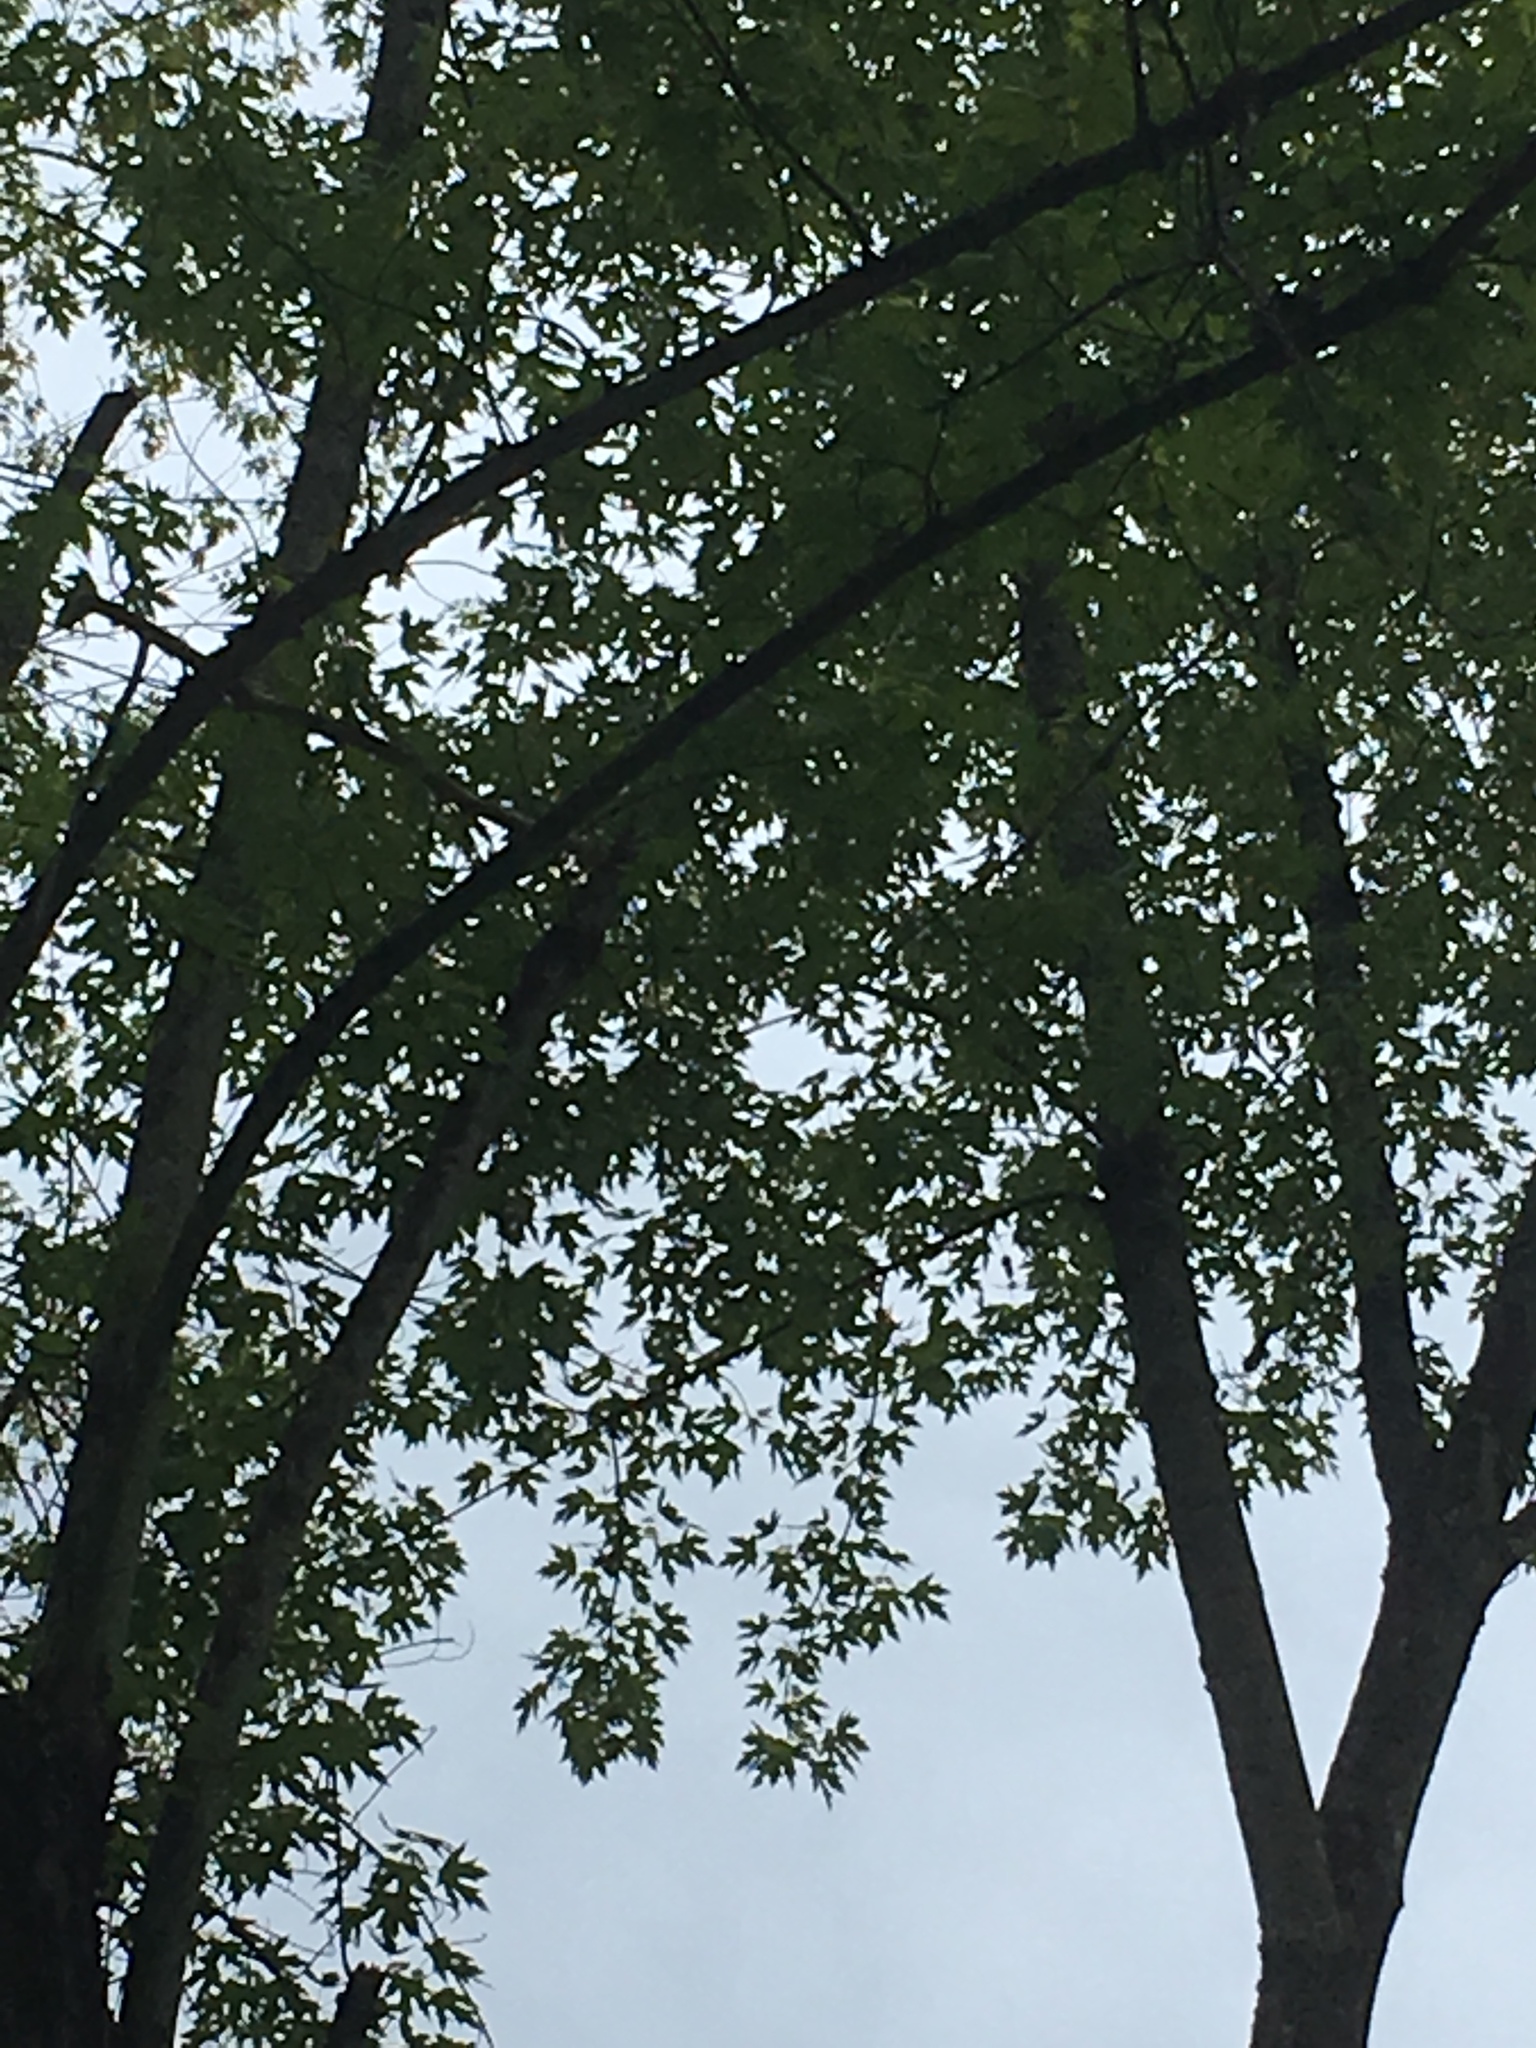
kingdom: Plantae
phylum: Tracheophyta
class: Magnoliopsida
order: Sapindales
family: Sapindaceae
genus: Acer
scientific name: Acer saccharinum
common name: Silver maple
